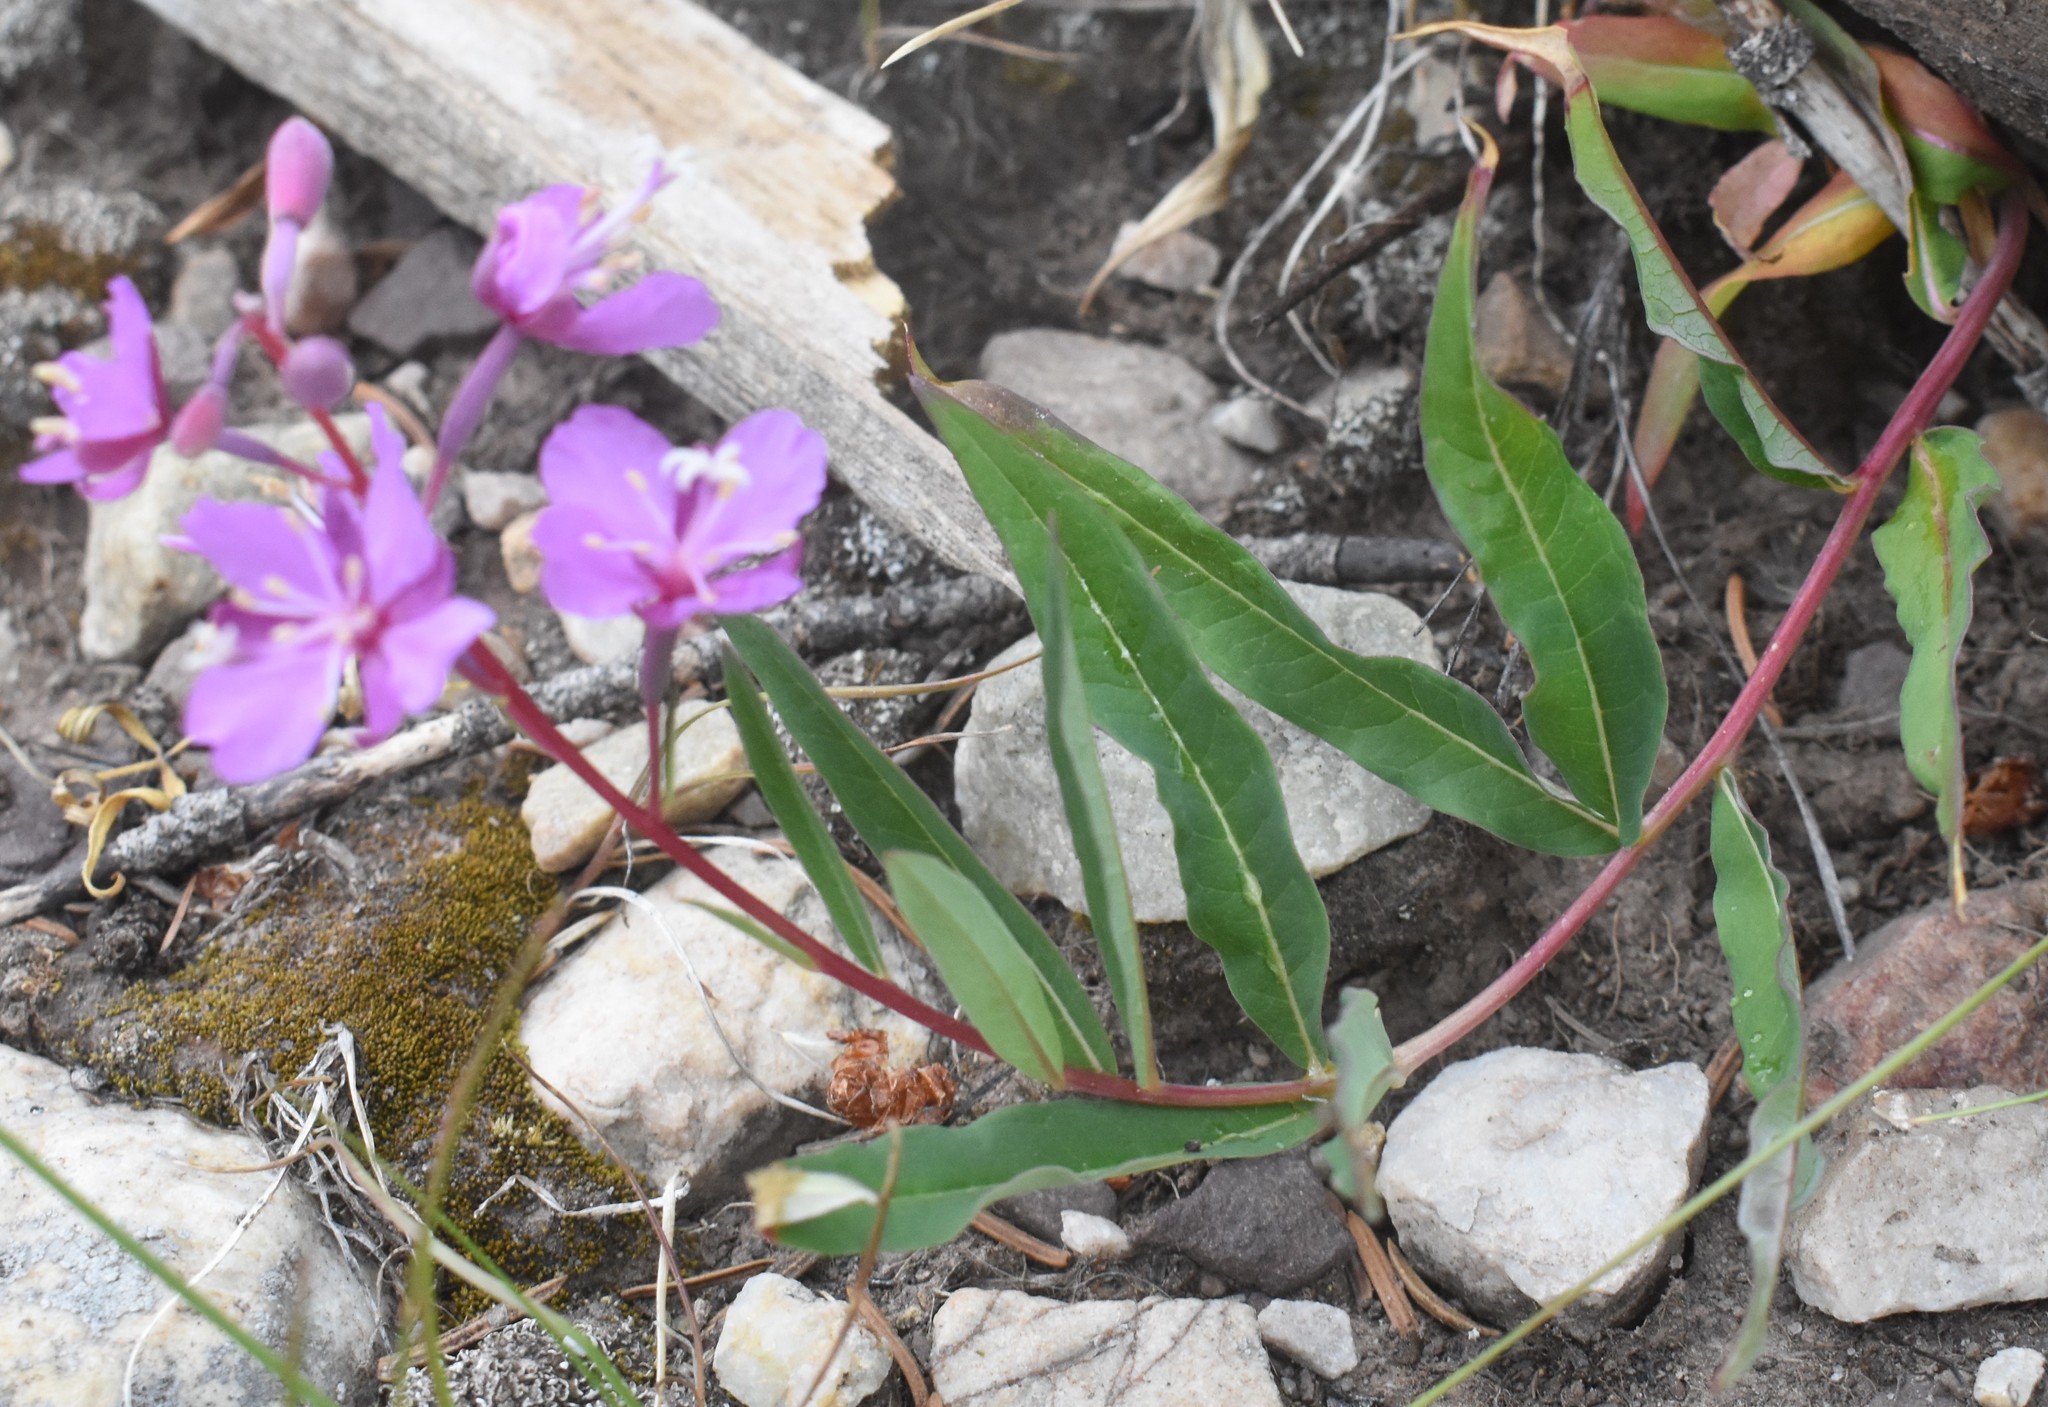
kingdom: Plantae
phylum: Tracheophyta
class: Magnoliopsida
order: Myrtales
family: Onagraceae
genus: Chamaenerion
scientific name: Chamaenerion angustifolium
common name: Fireweed
